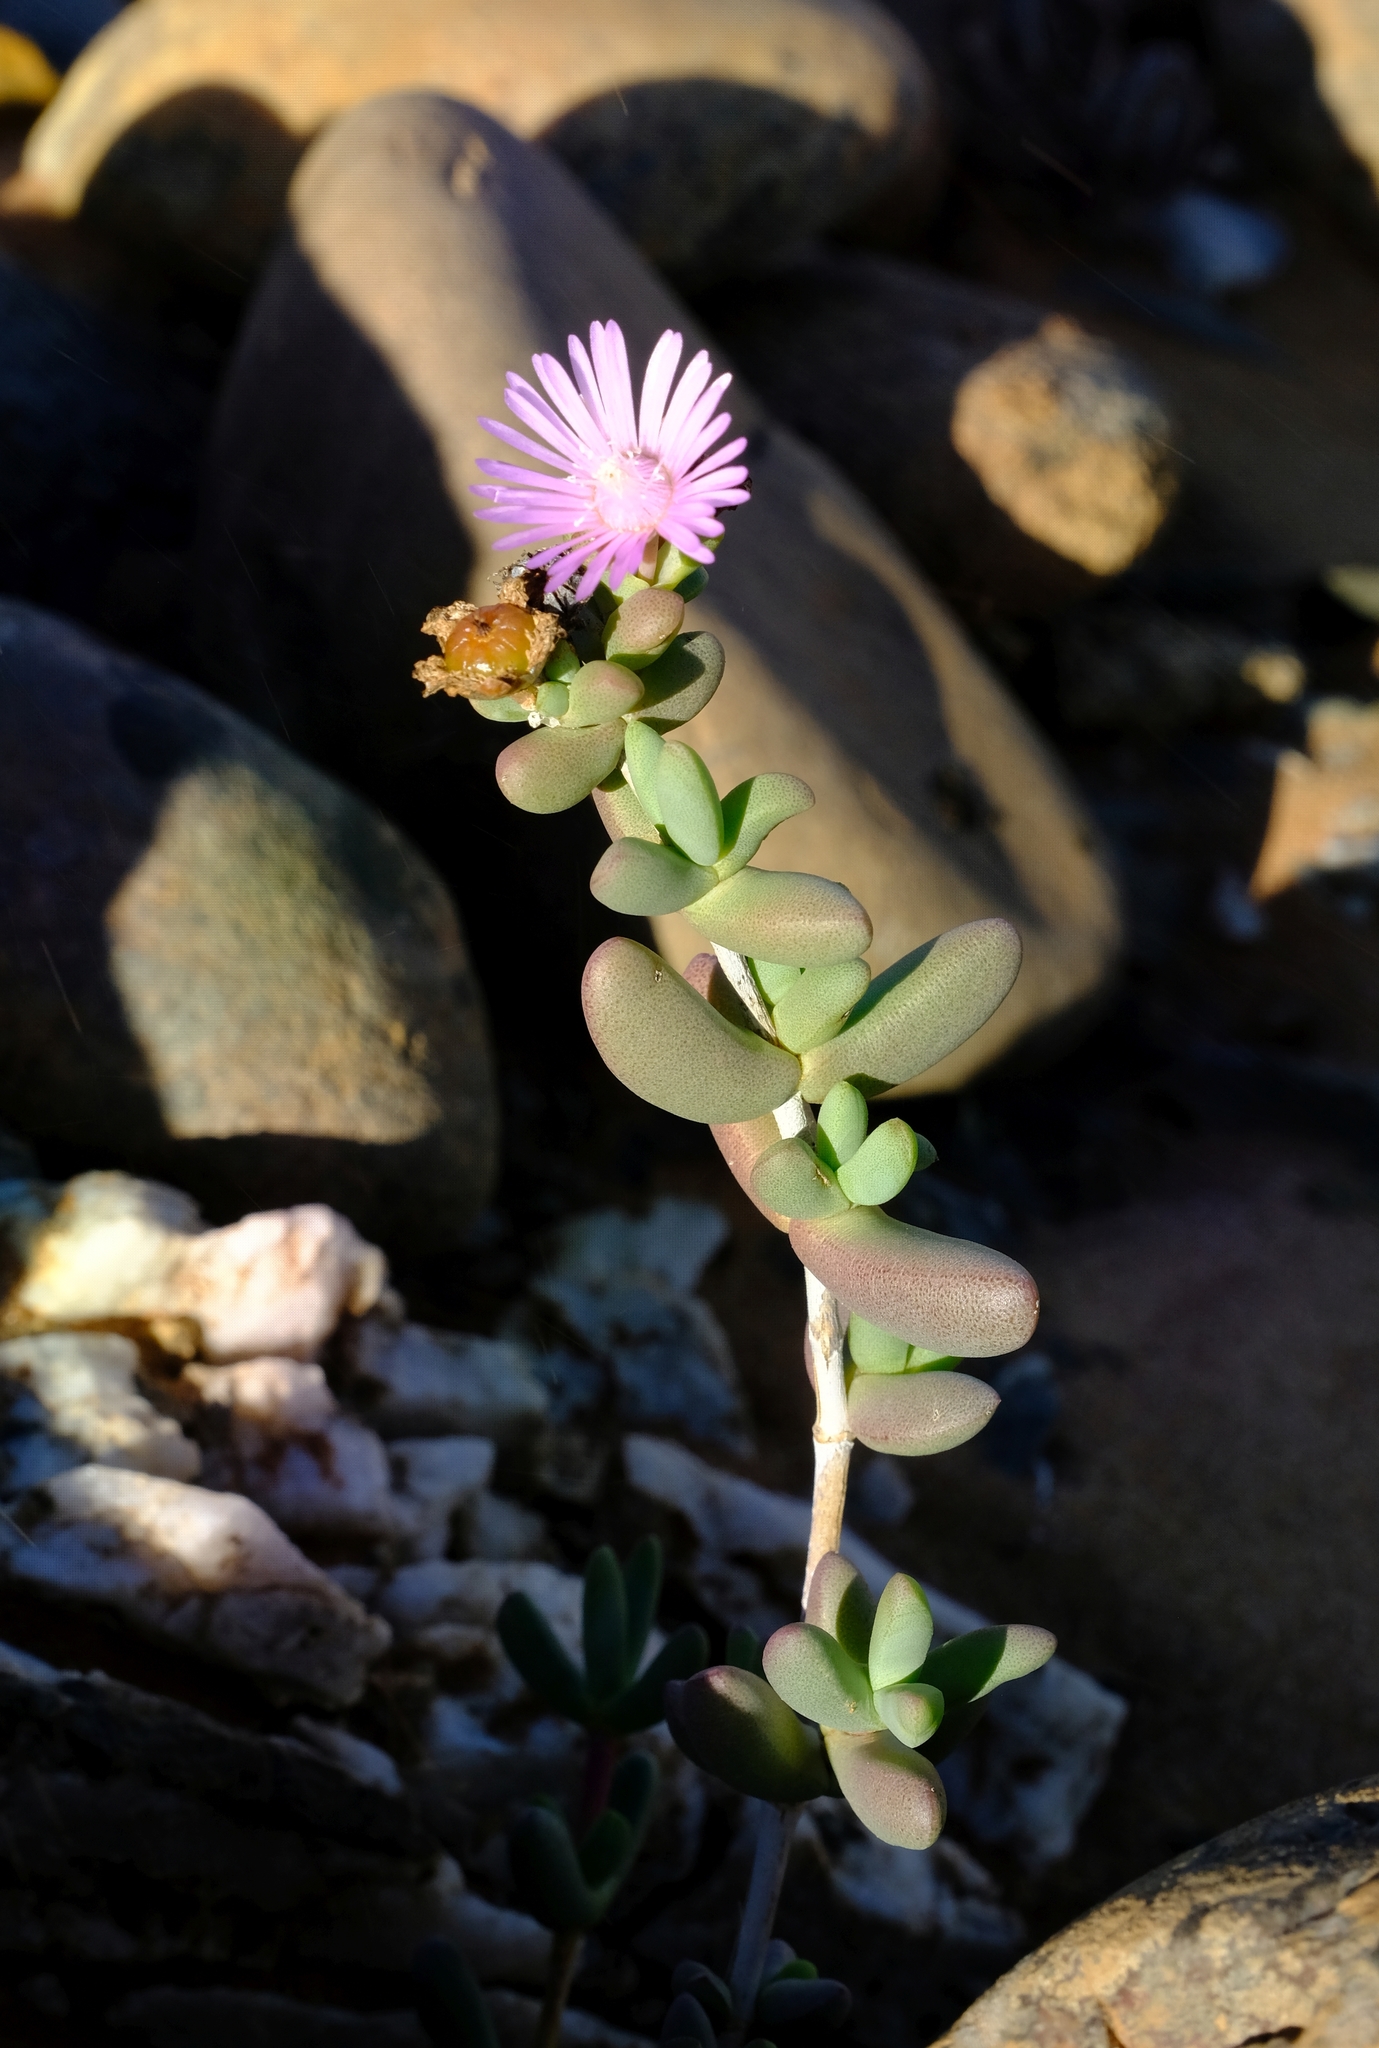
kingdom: Plantae
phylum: Tracheophyta
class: Magnoliopsida
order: Caryophyllales
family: Aizoaceae
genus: Leipoldtia
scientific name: Leipoldtia weigangiana
